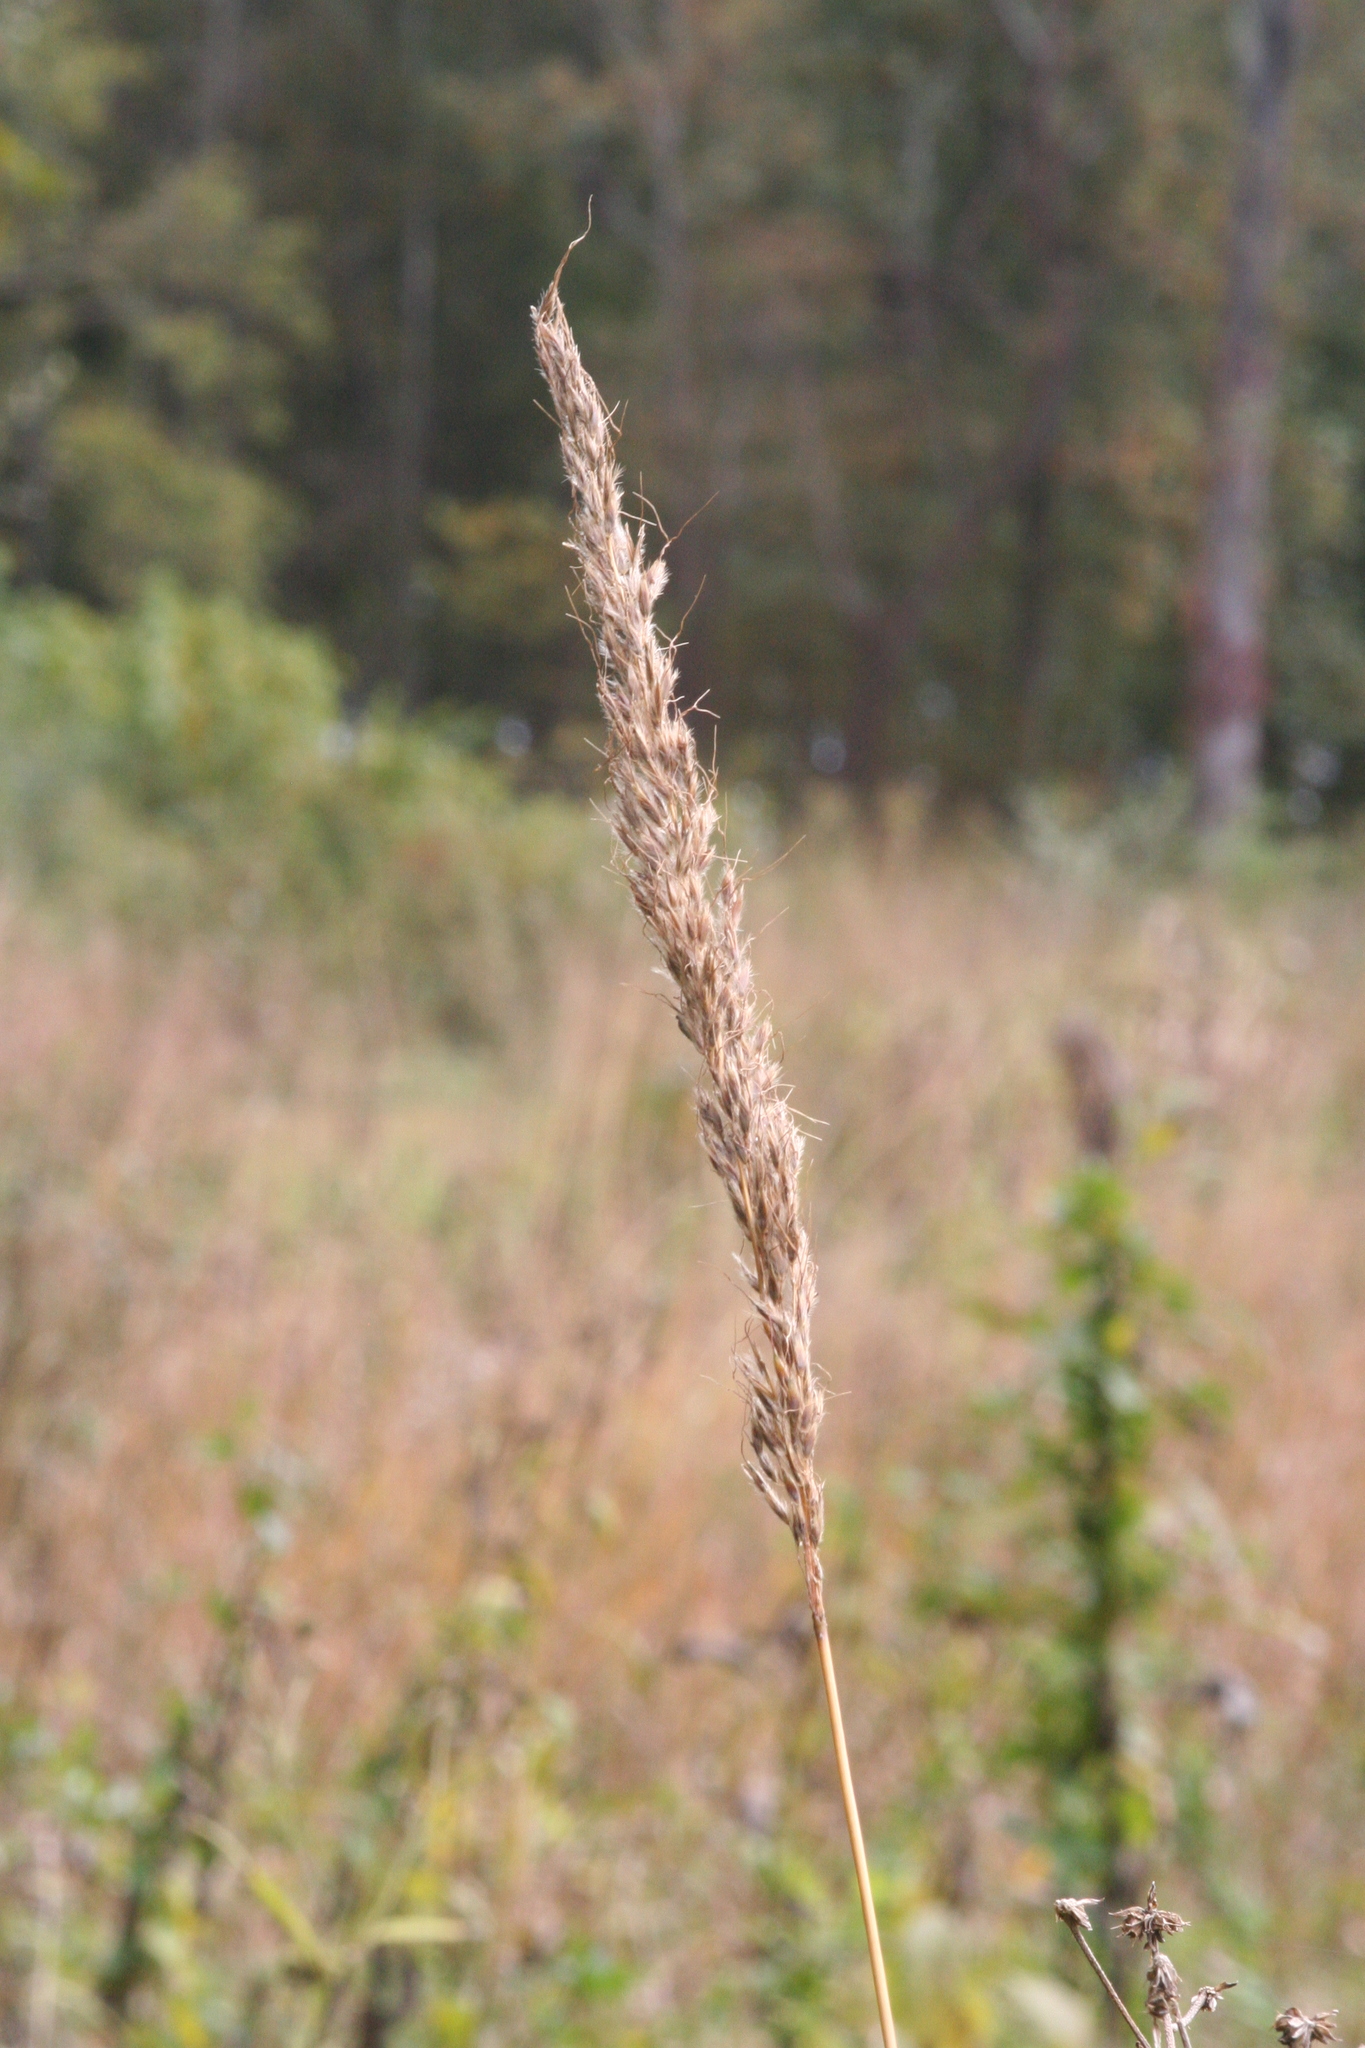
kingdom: Plantae
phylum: Tracheophyta
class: Liliopsida
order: Poales
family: Poaceae
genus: Sorghastrum
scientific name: Sorghastrum nutans
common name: Indian grass
